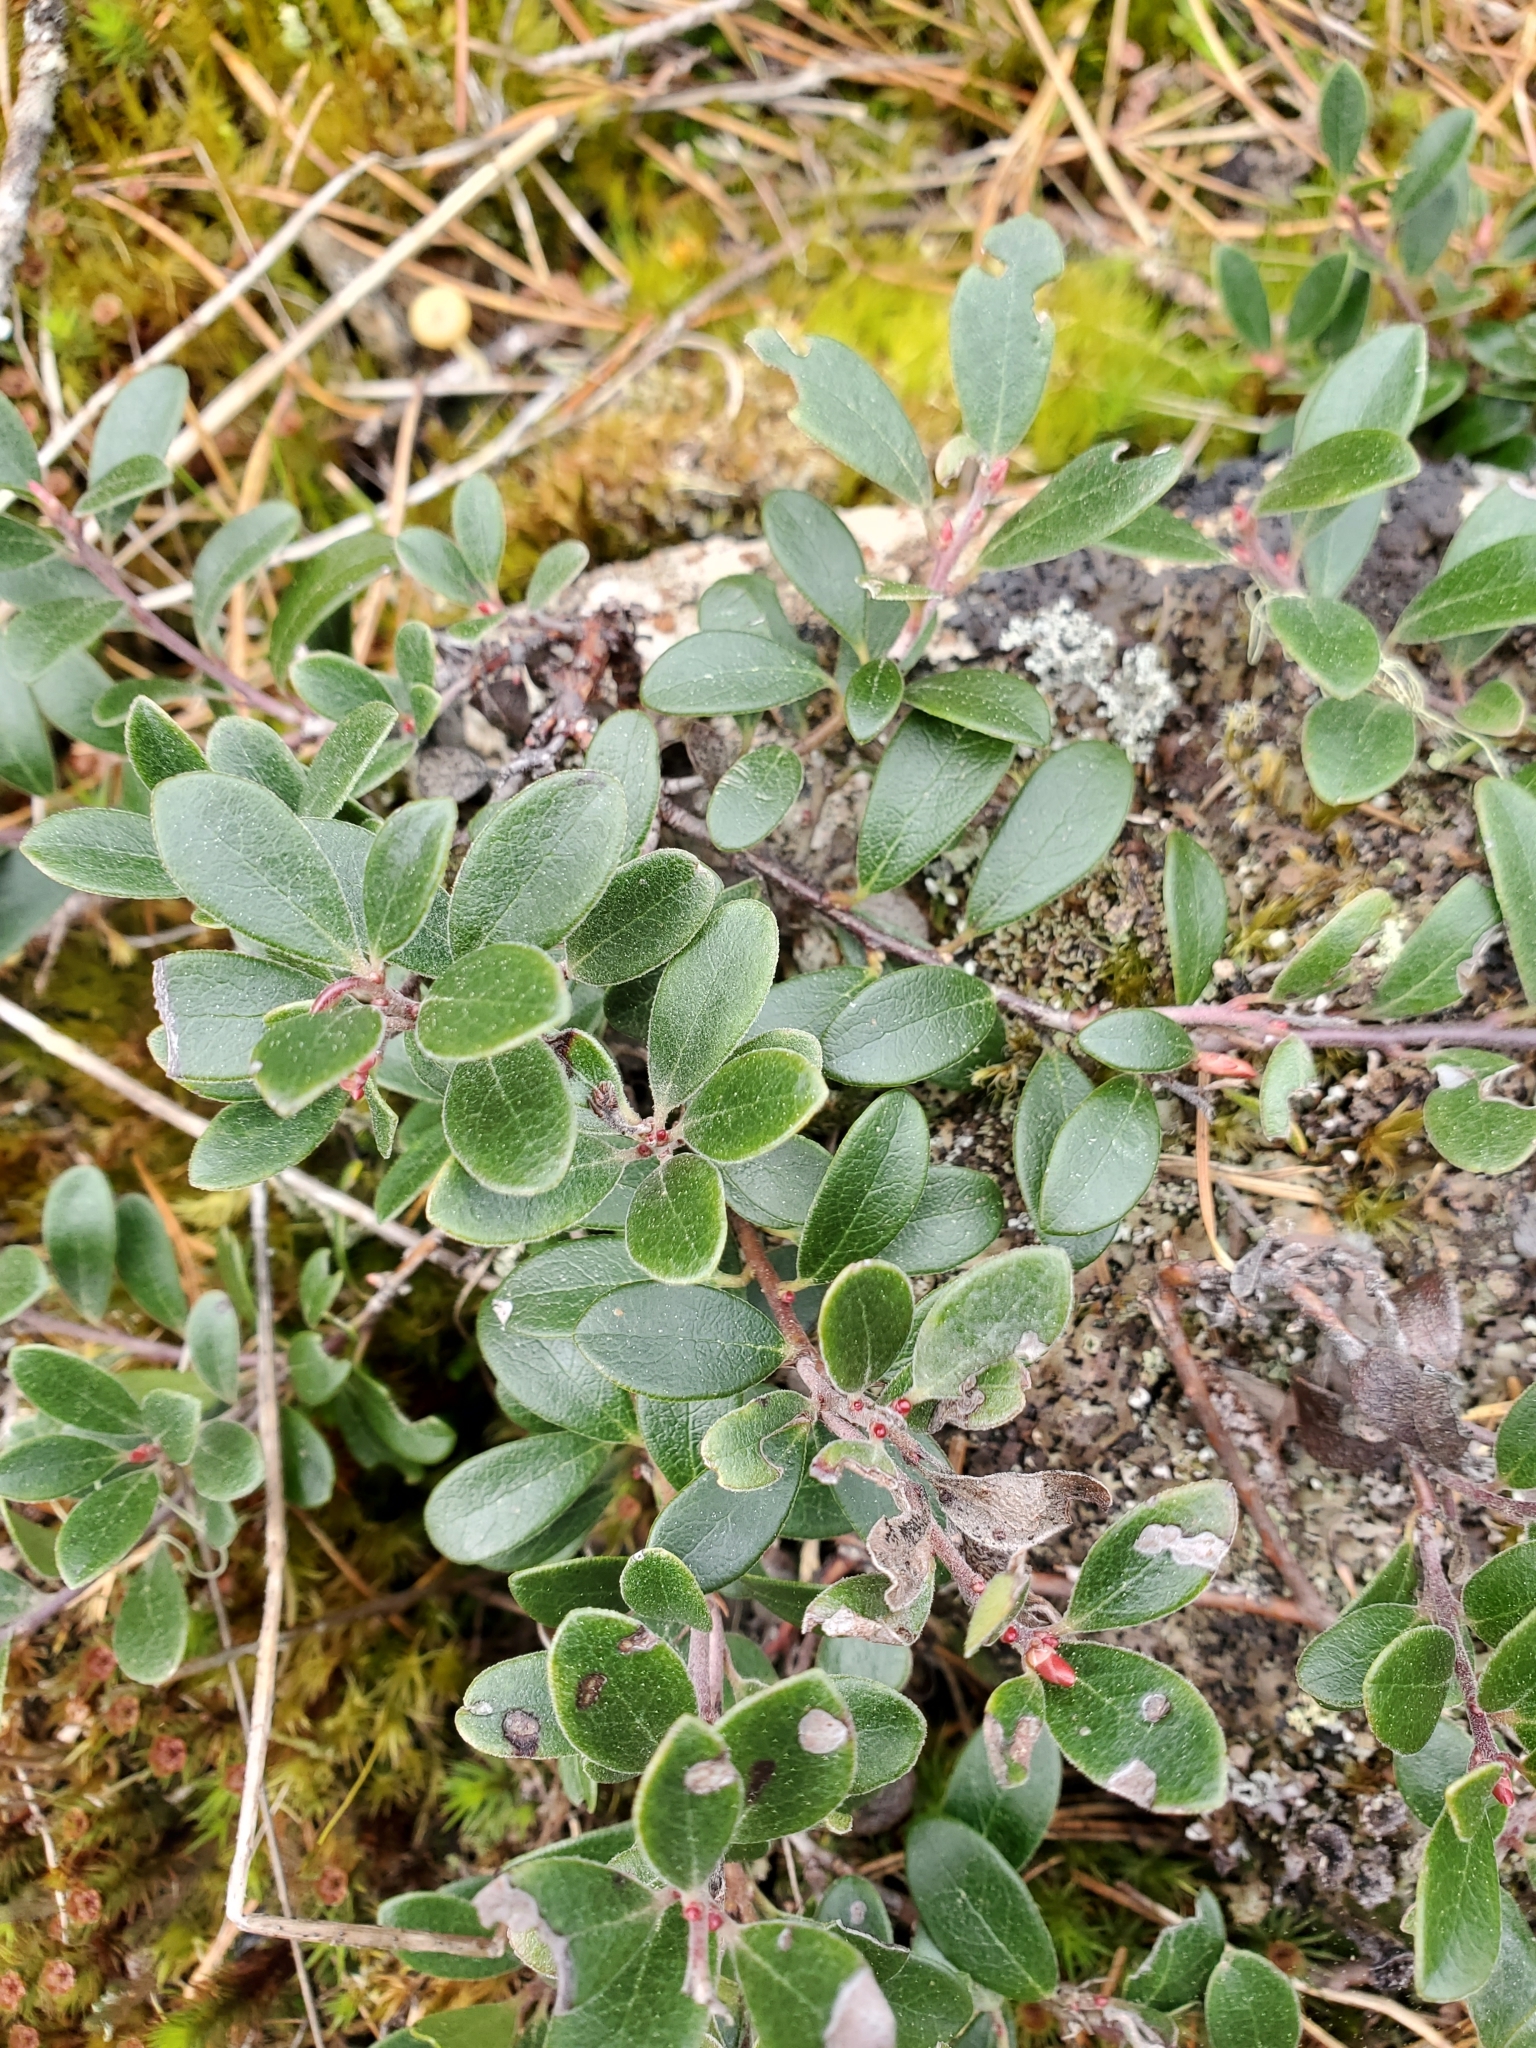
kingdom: Plantae
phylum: Tracheophyta
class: Magnoliopsida
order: Ericales
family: Ericaceae
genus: Arctostaphylos
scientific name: Arctostaphylos uva-ursi
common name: Bearberry
